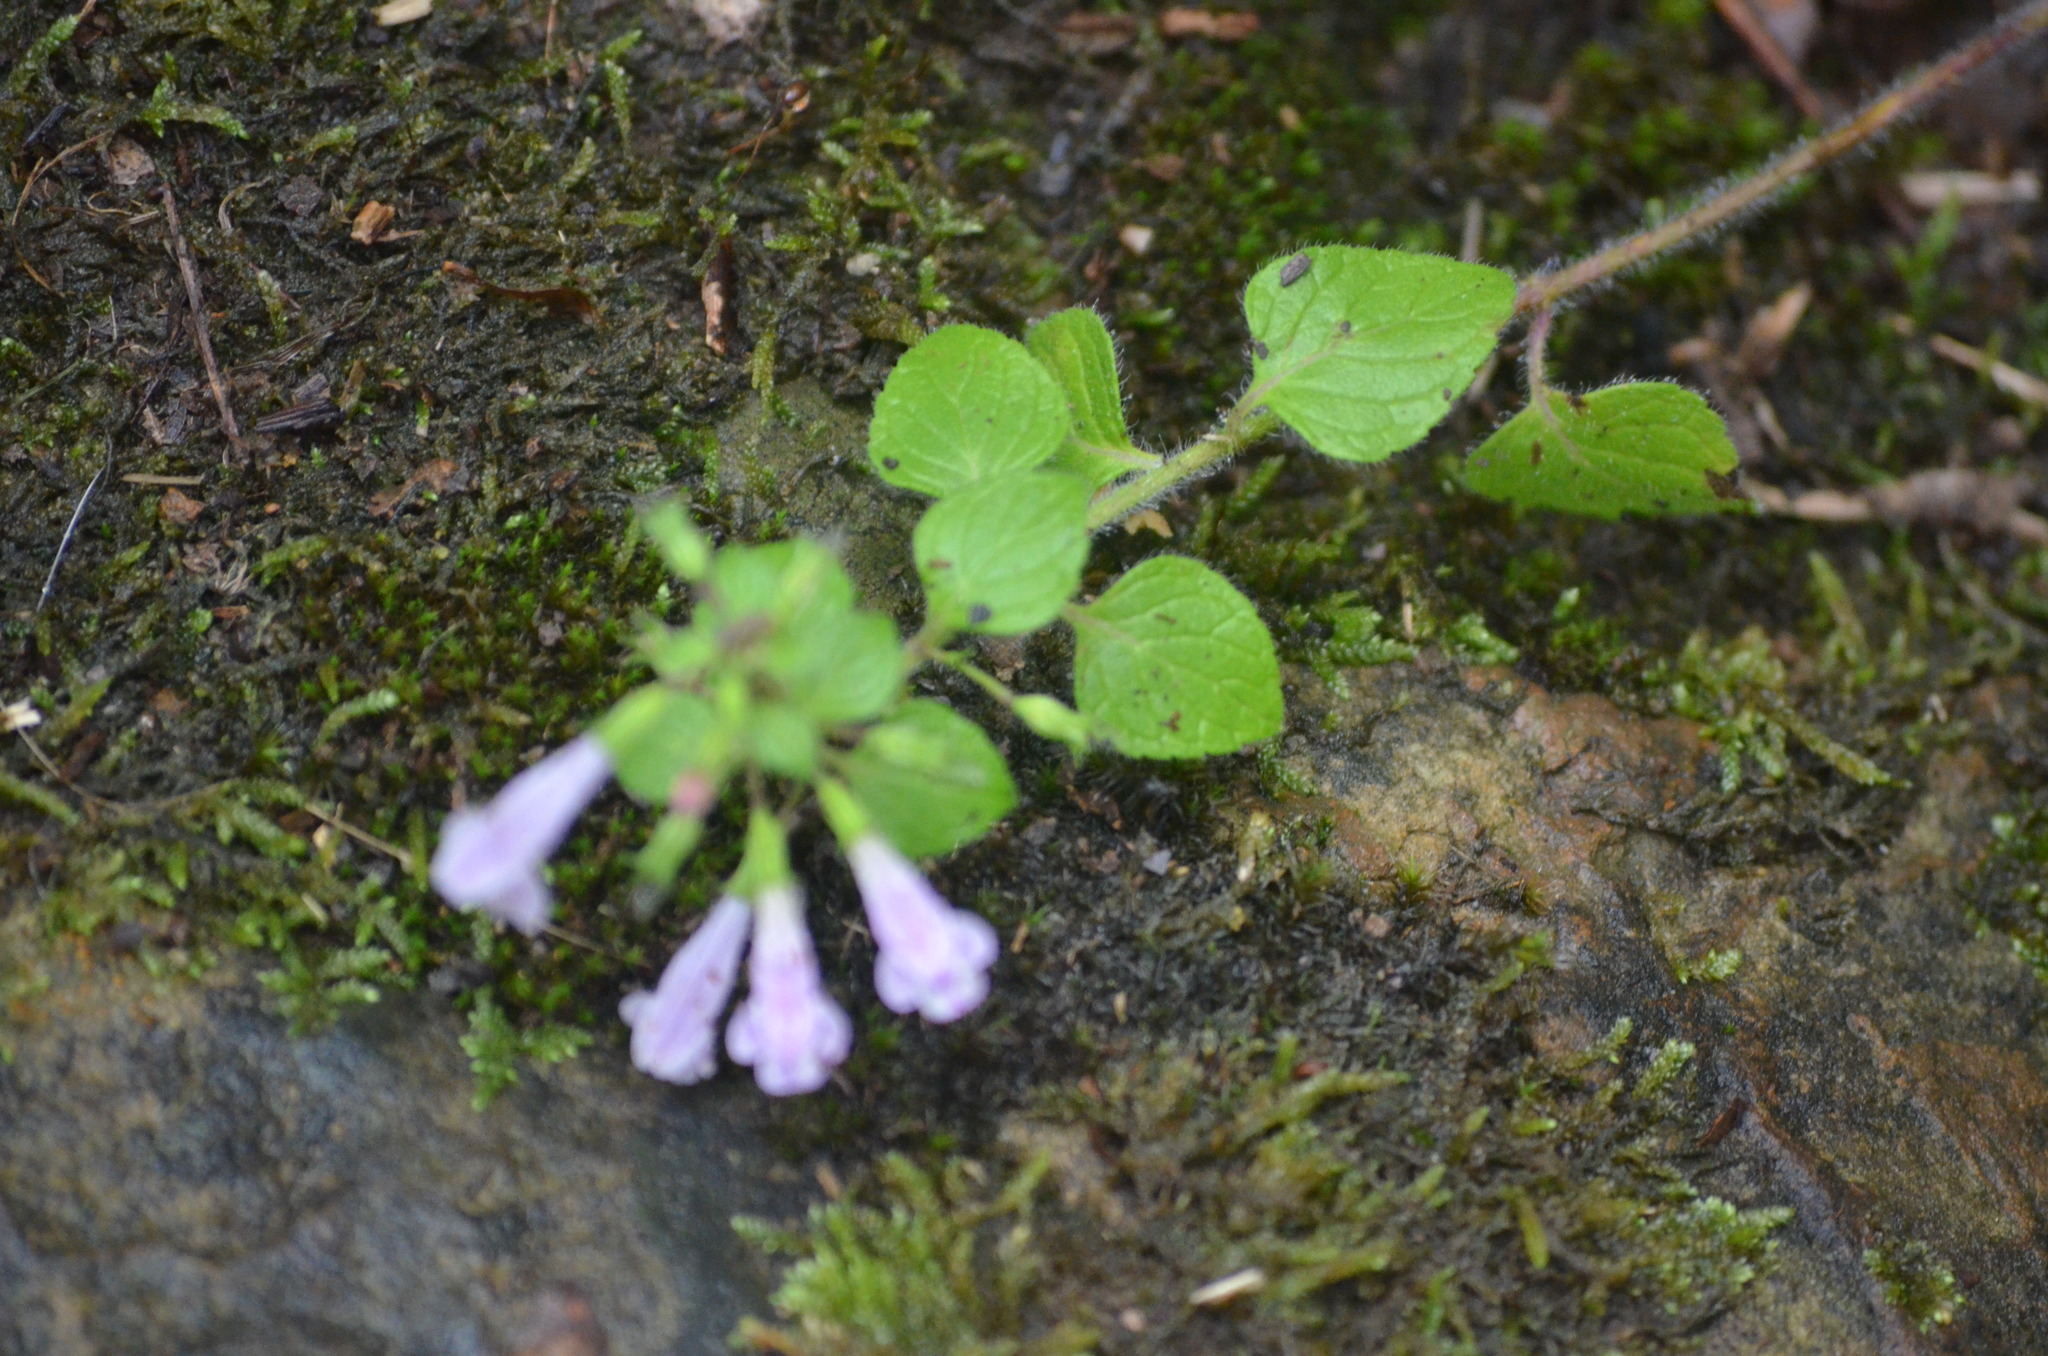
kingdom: Plantae
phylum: Tracheophyta
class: Magnoliopsida
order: Lamiales
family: Lamiaceae
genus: Clinopodium
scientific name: Clinopodium nepeta
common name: Lesser calamint
